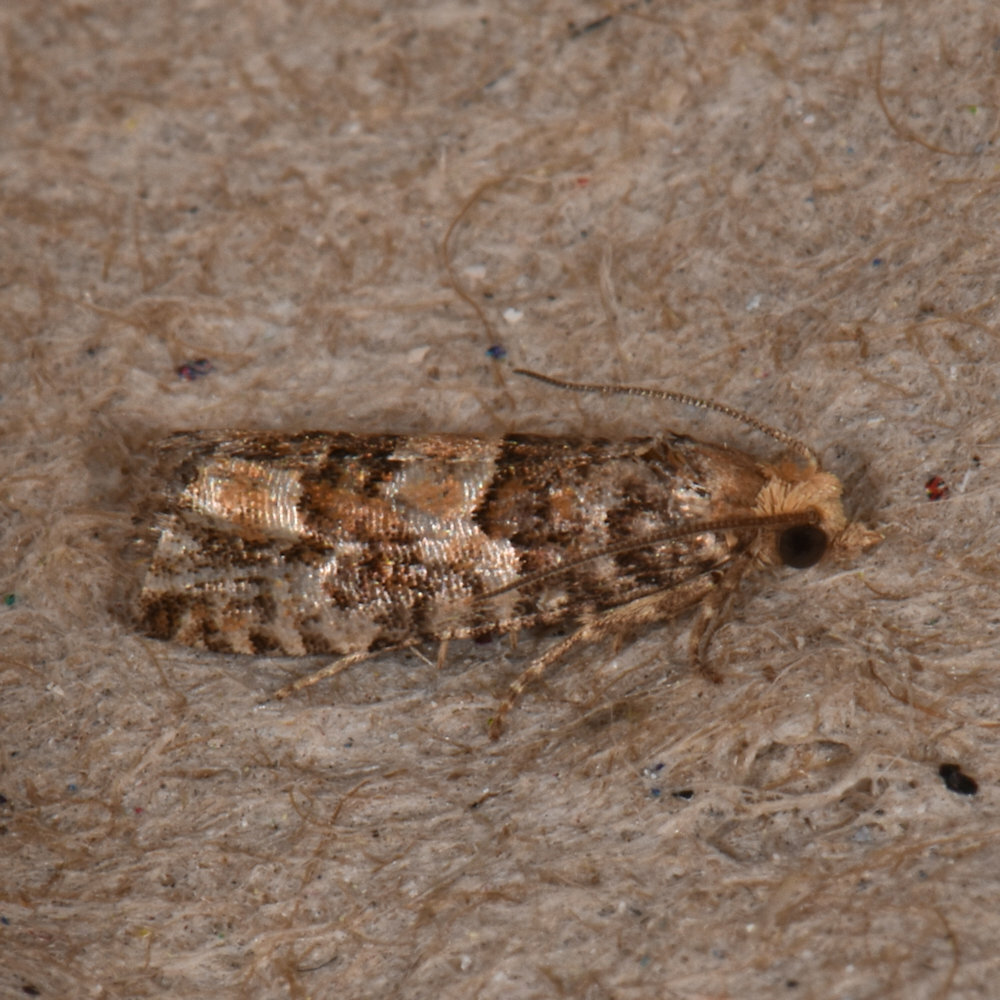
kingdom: Animalia
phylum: Arthropoda
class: Insecta
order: Lepidoptera
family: Tortricidae
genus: Eucopina
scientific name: Eucopina tocullionana
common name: White pinecone borer moth
